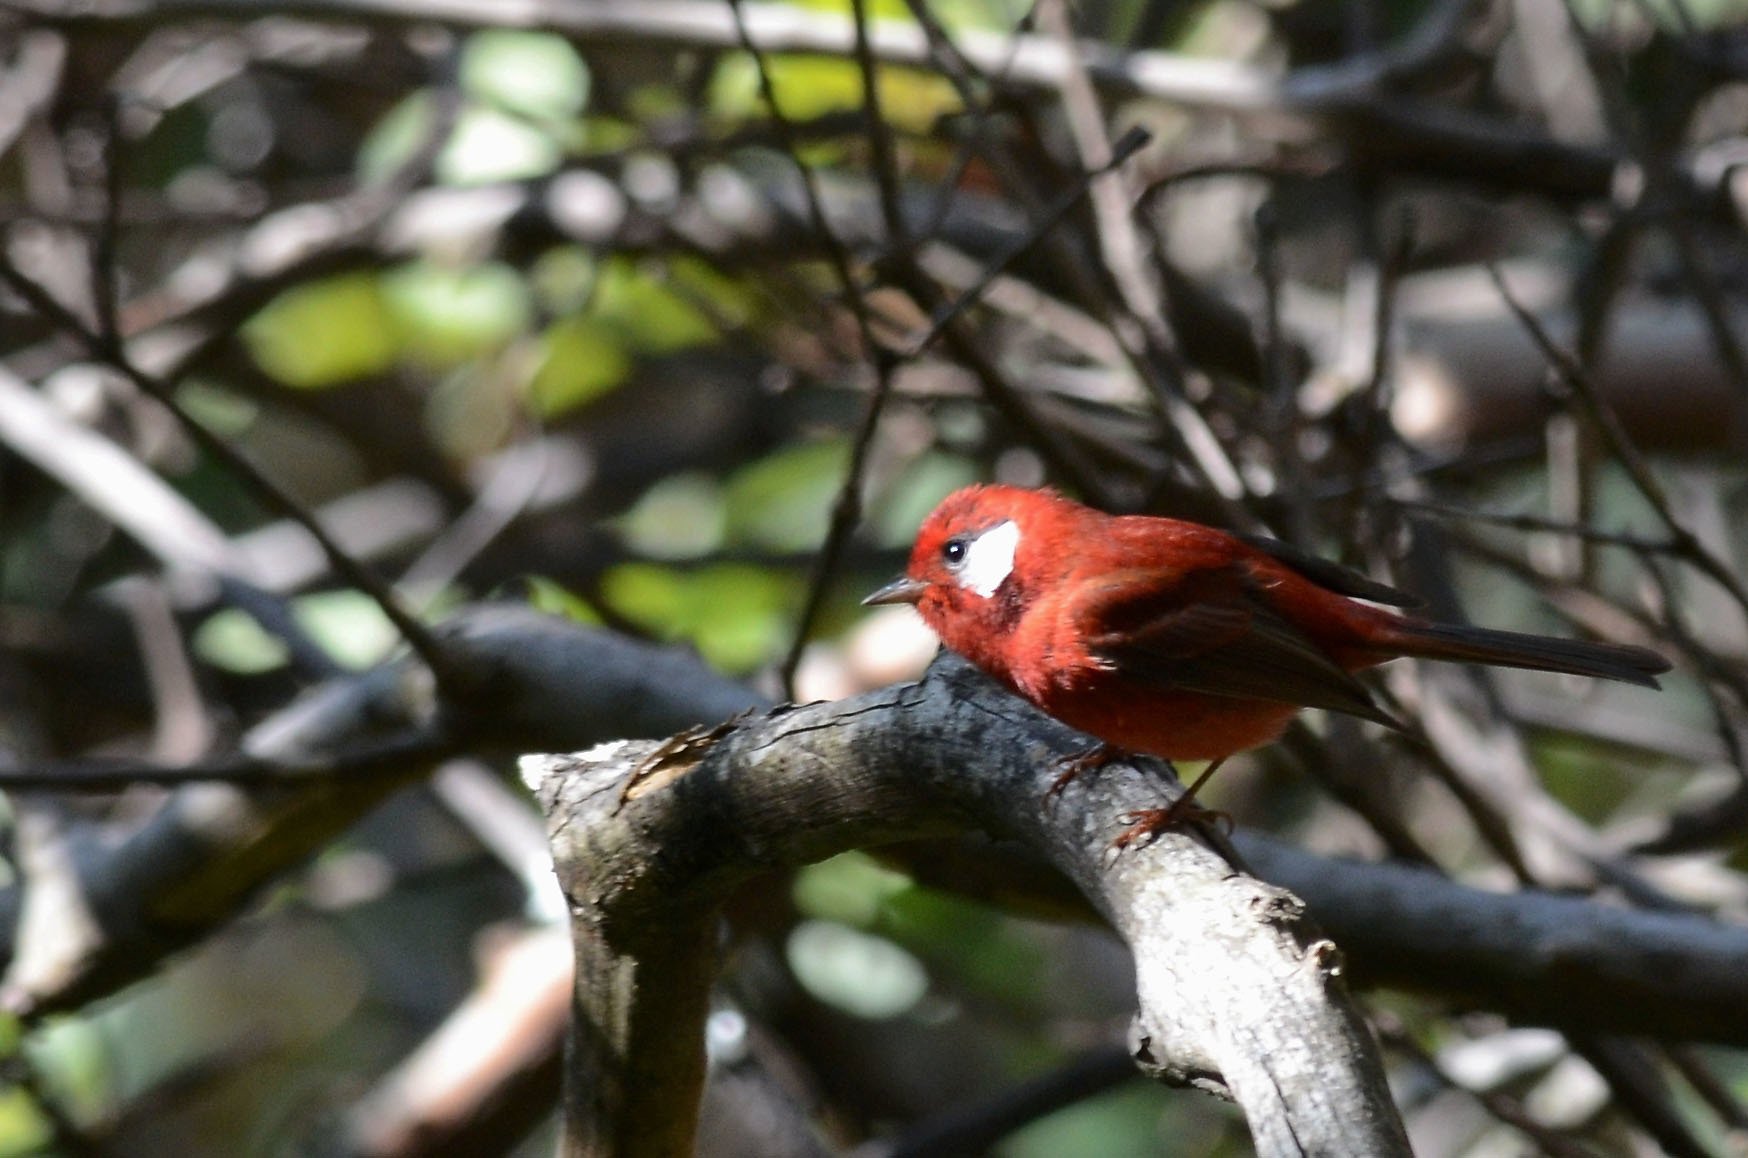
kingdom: Animalia
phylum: Chordata
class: Aves
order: Passeriformes
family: Parulidae
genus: Cardellina
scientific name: Cardellina rubra
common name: Red warbler
